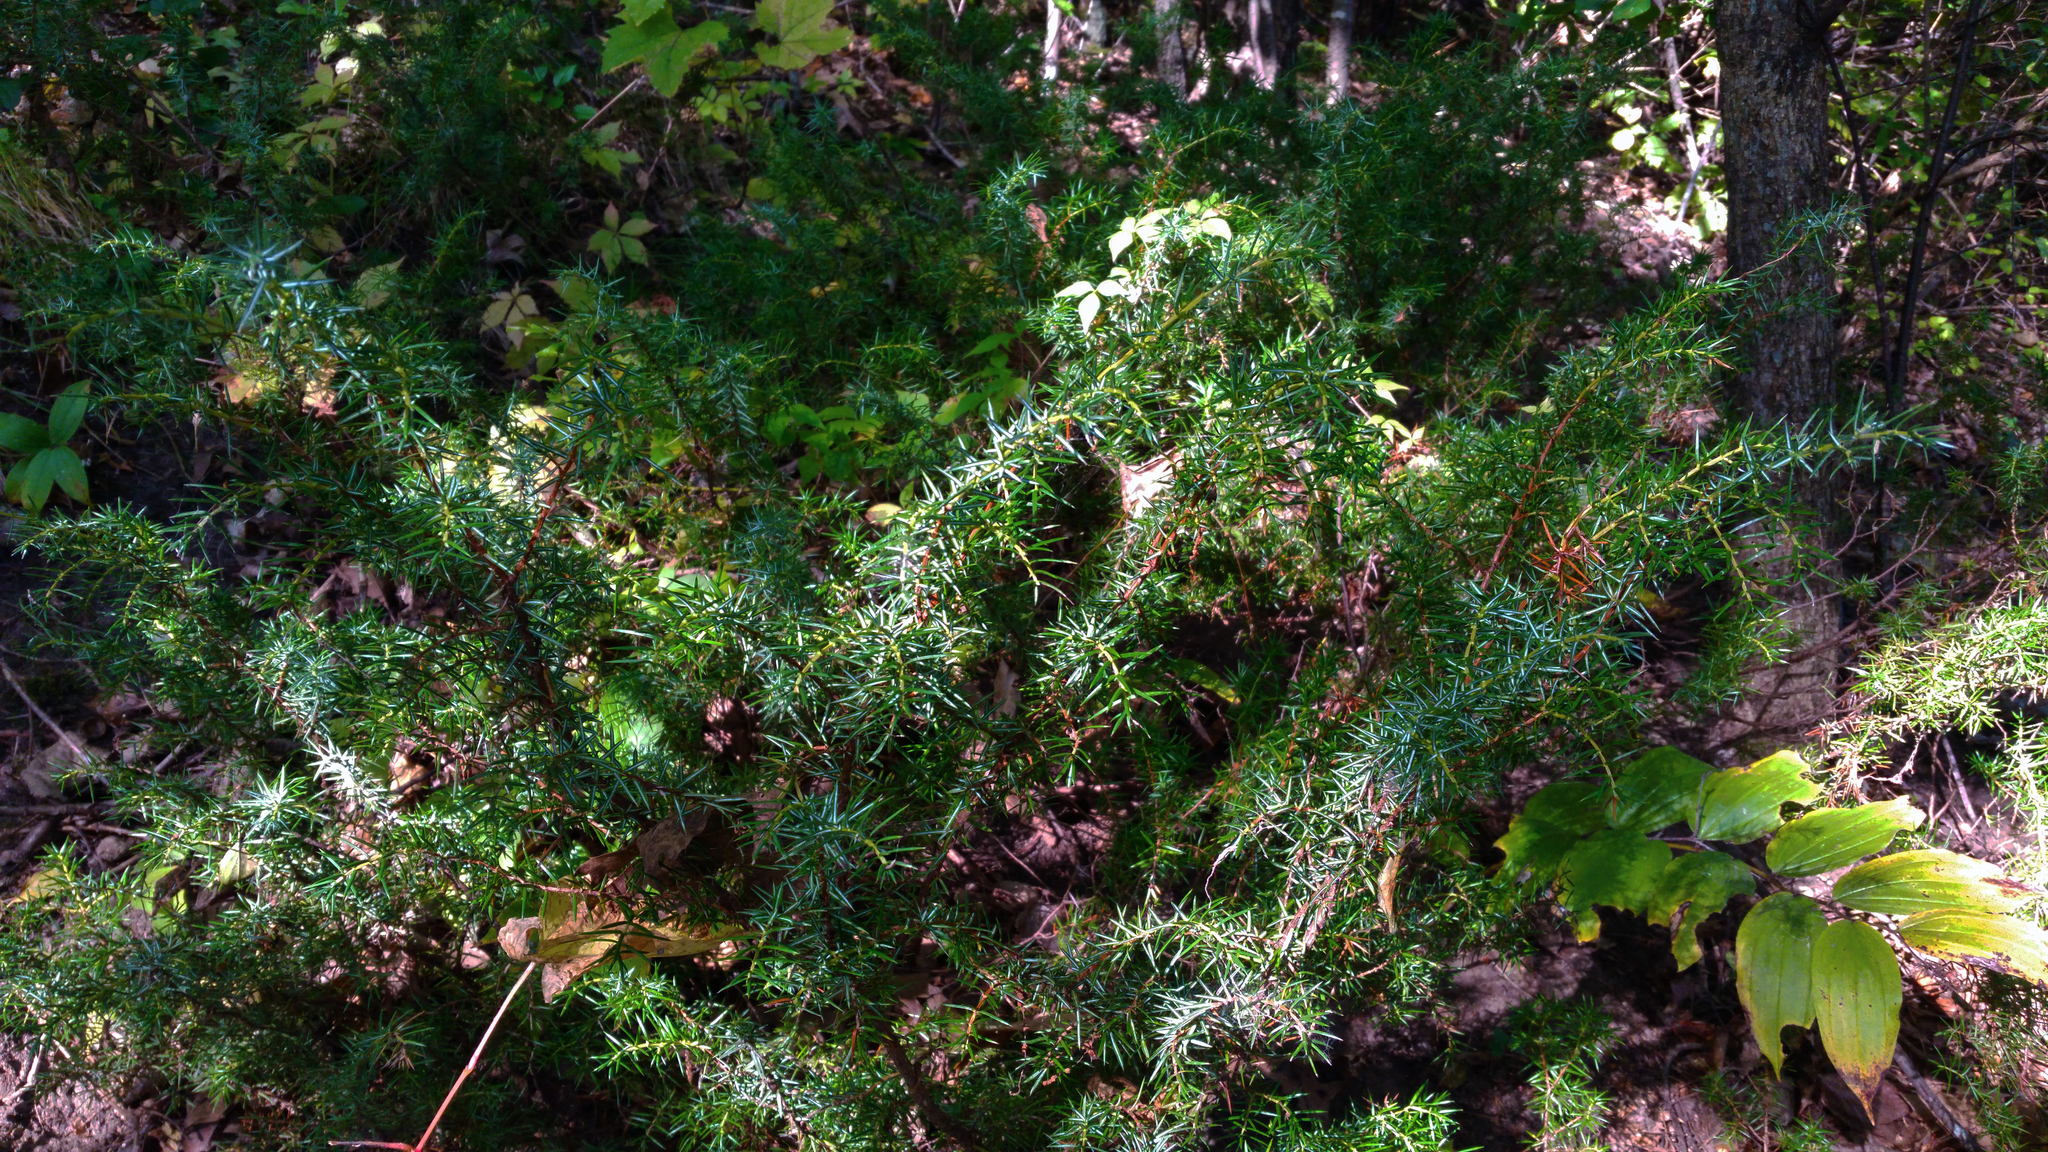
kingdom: Plantae
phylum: Tracheophyta
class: Pinopsida
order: Pinales
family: Cupressaceae
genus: Juniperus
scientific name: Juniperus communis
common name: Common juniper
